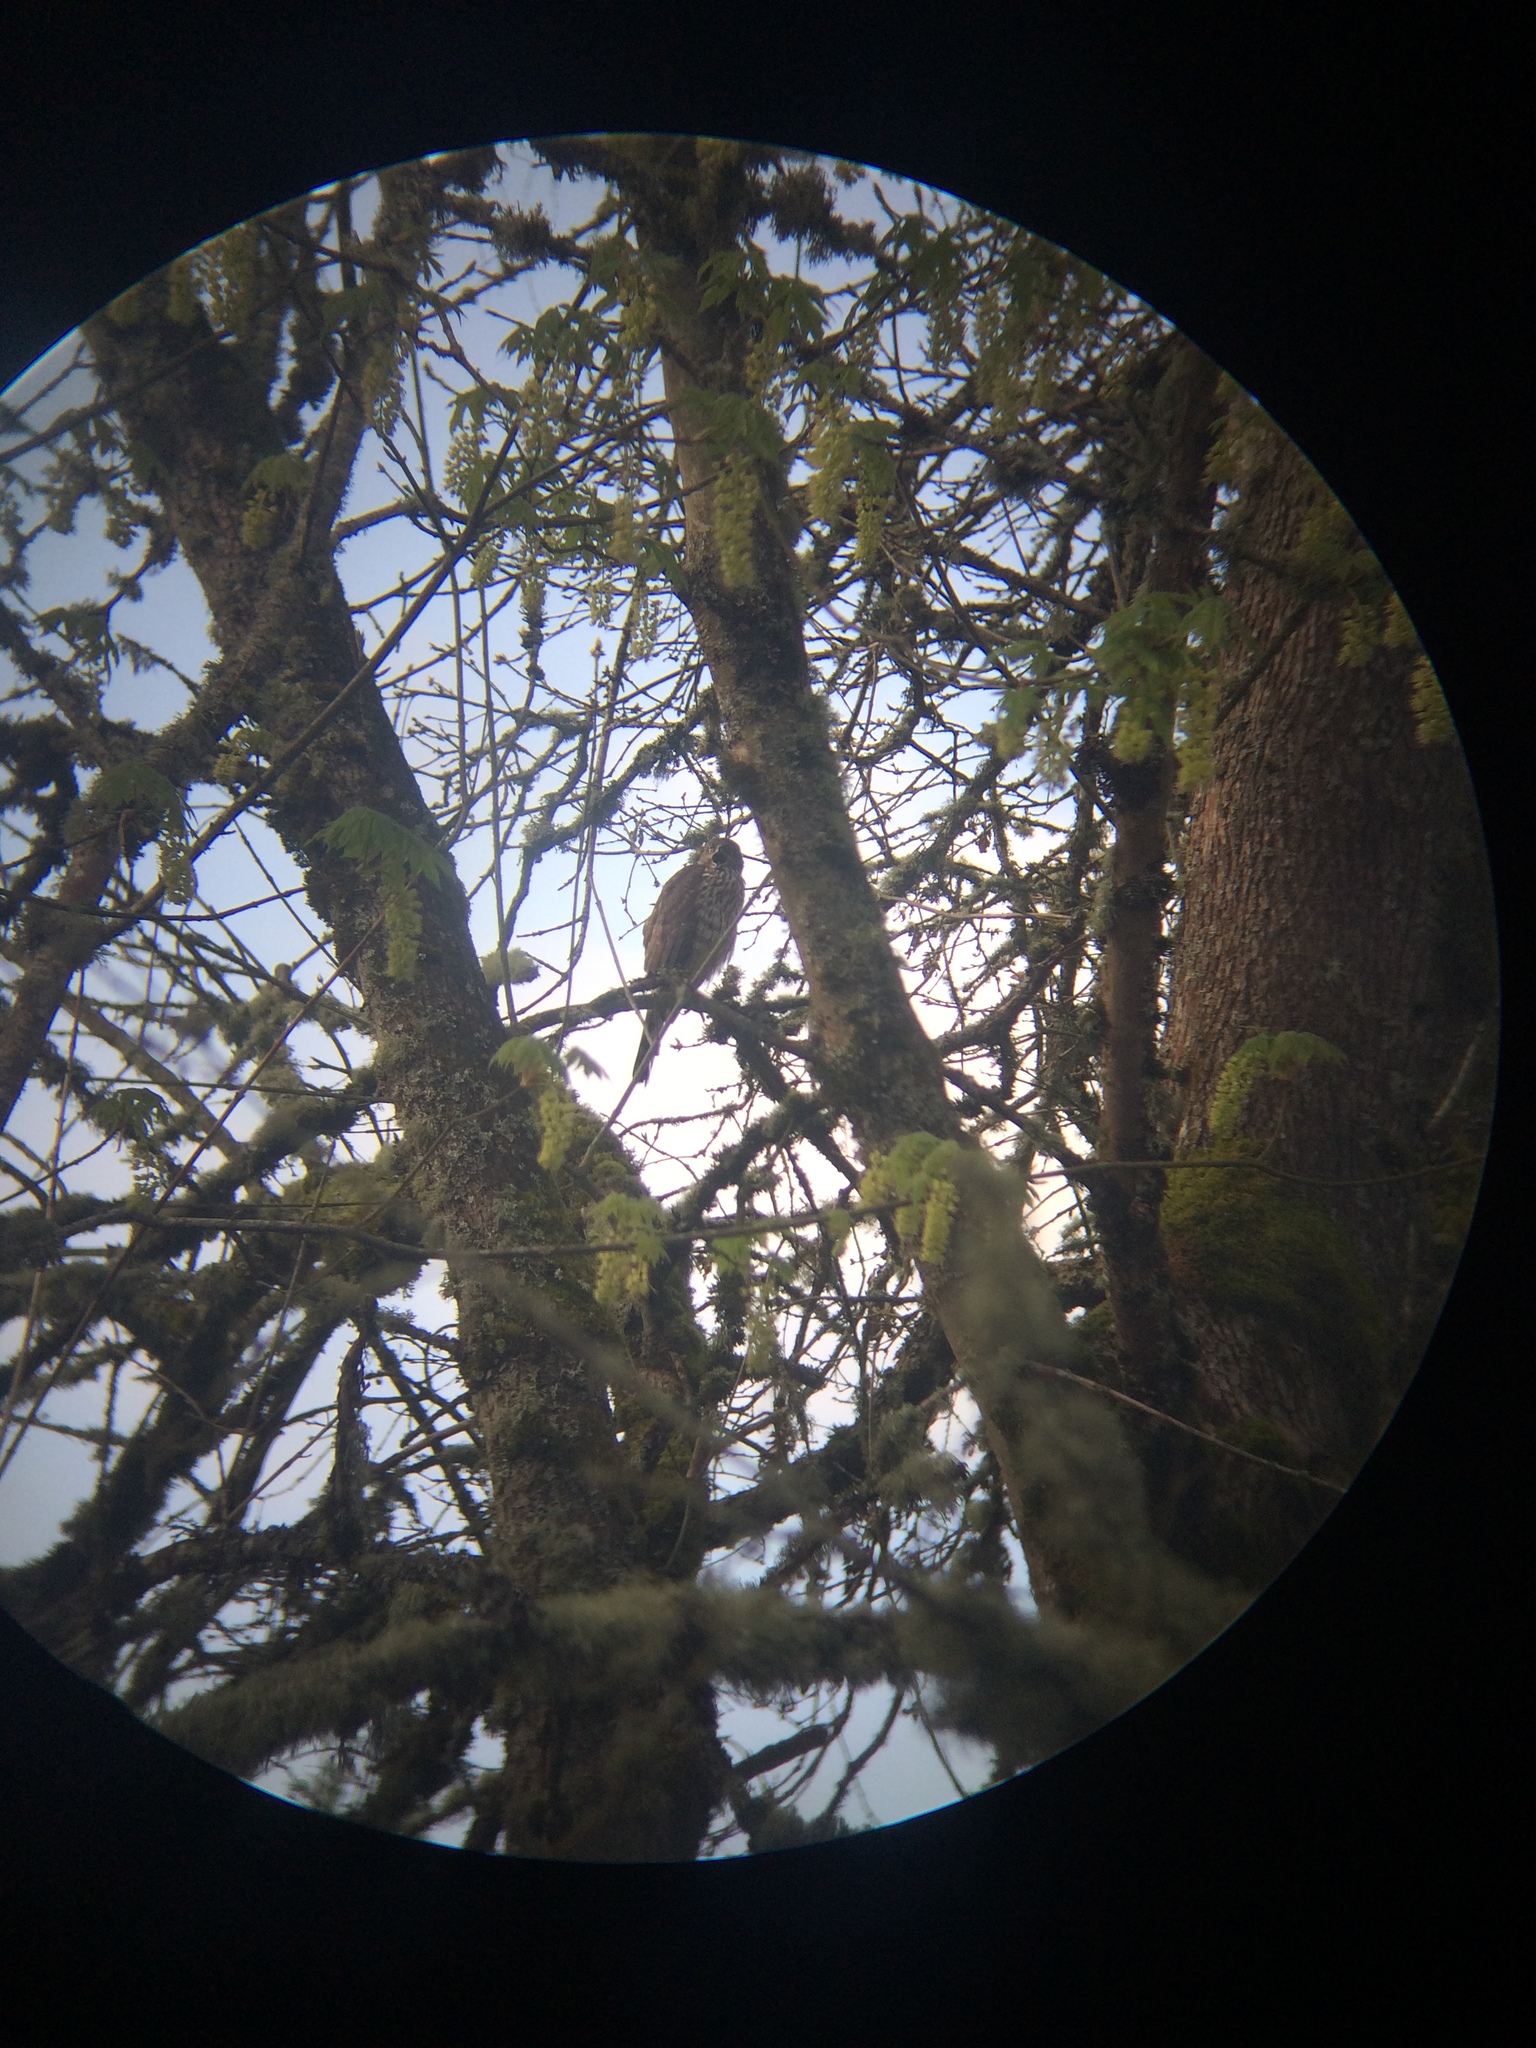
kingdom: Animalia
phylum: Chordata
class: Aves
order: Accipitriformes
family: Accipitridae
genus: Accipiter
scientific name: Accipiter cooperii
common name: Cooper's hawk
